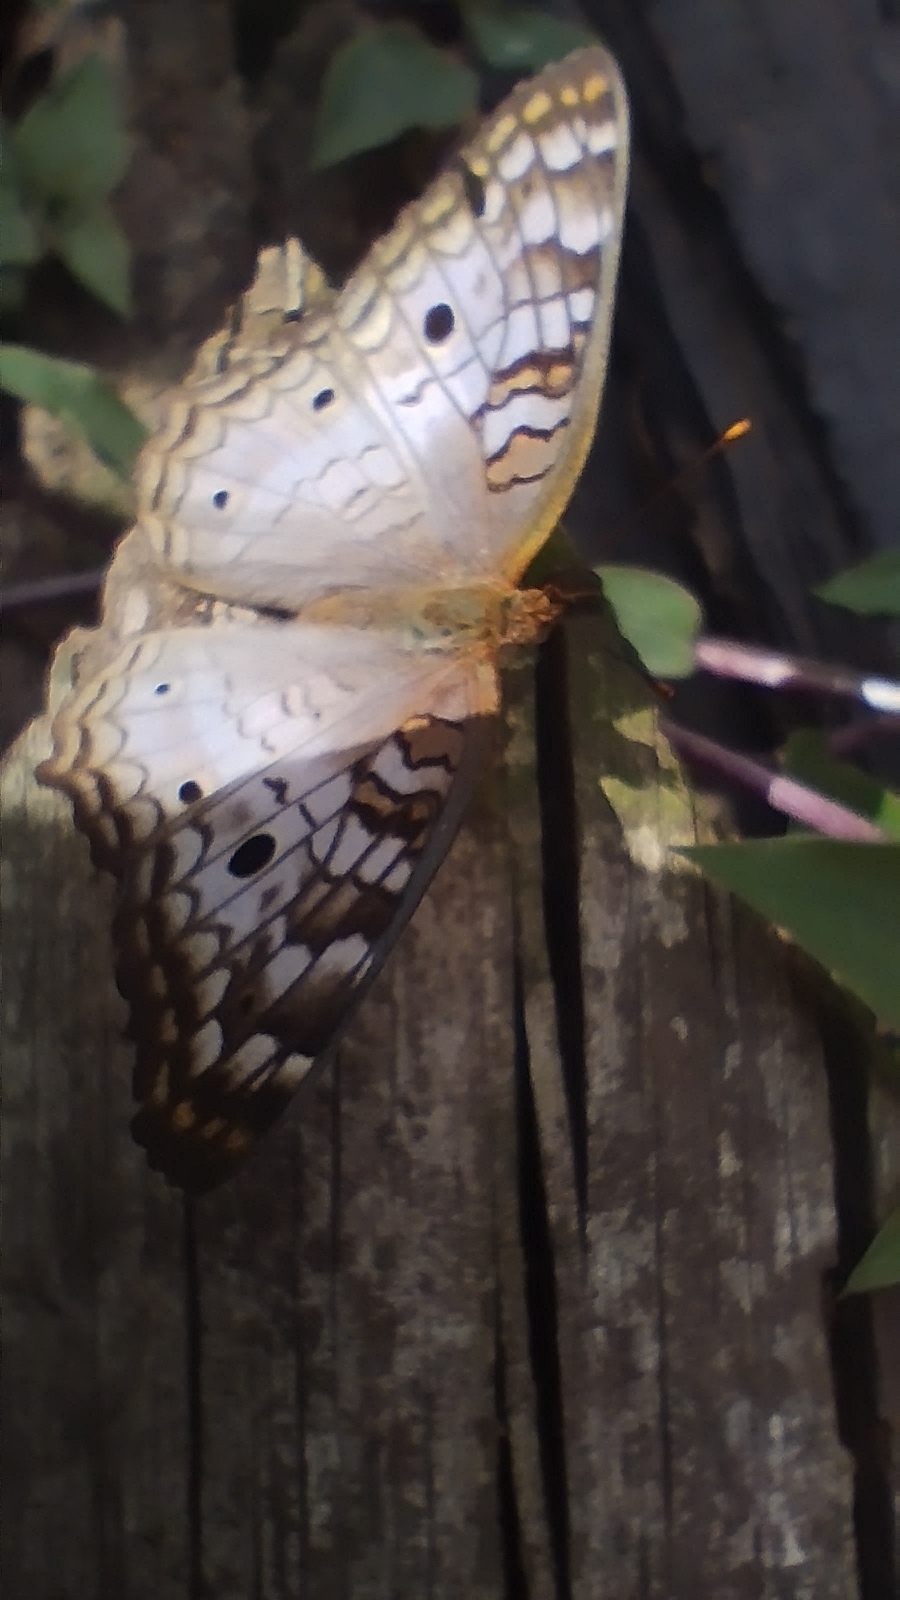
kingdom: Animalia
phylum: Arthropoda
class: Insecta
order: Lepidoptera
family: Nymphalidae
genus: Anartia
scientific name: Anartia jatrophae
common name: White peacock
